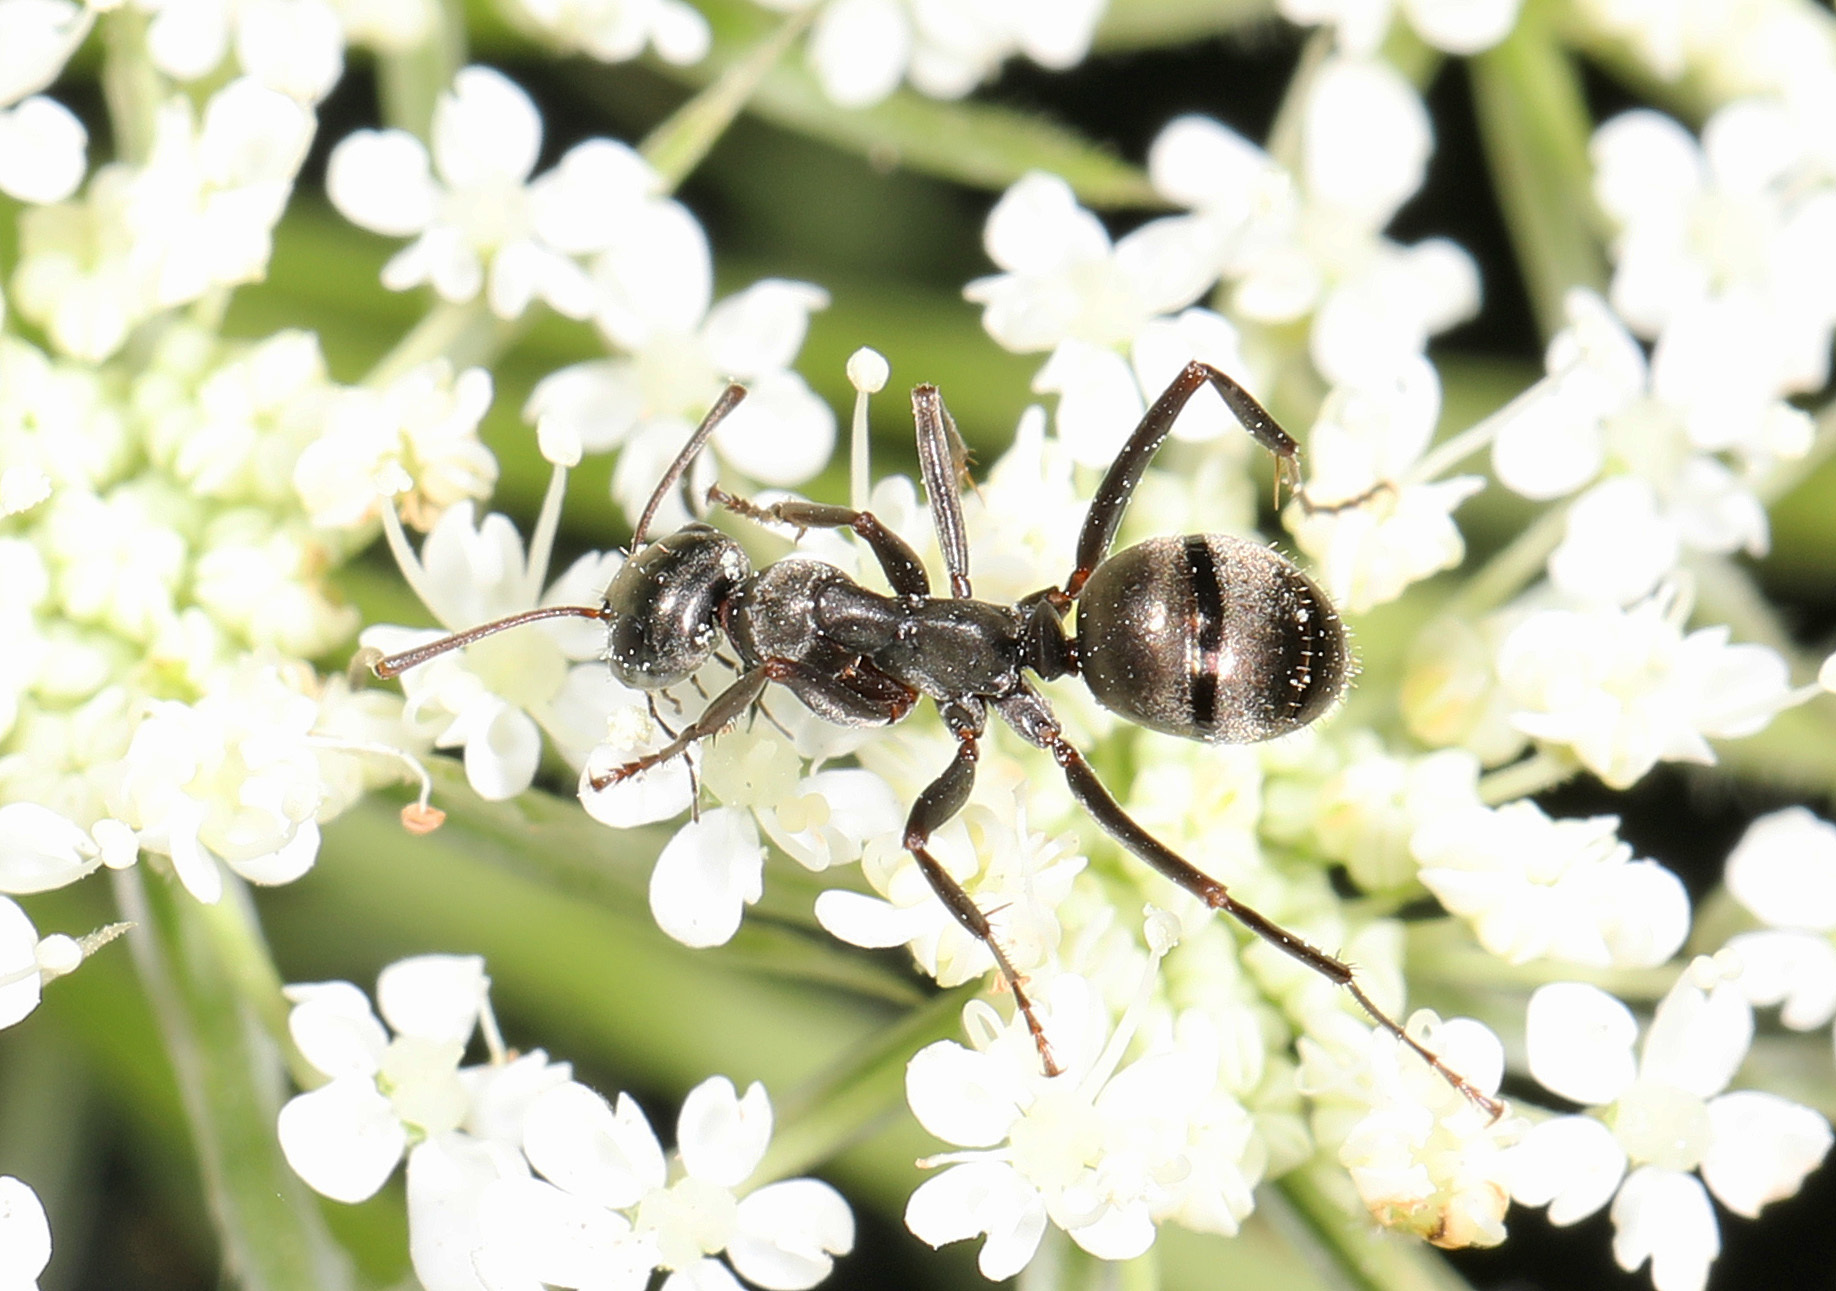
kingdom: Animalia
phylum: Arthropoda
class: Insecta
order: Hymenoptera
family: Formicidae
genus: Formica
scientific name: Formica subsericea
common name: Silky field ant
